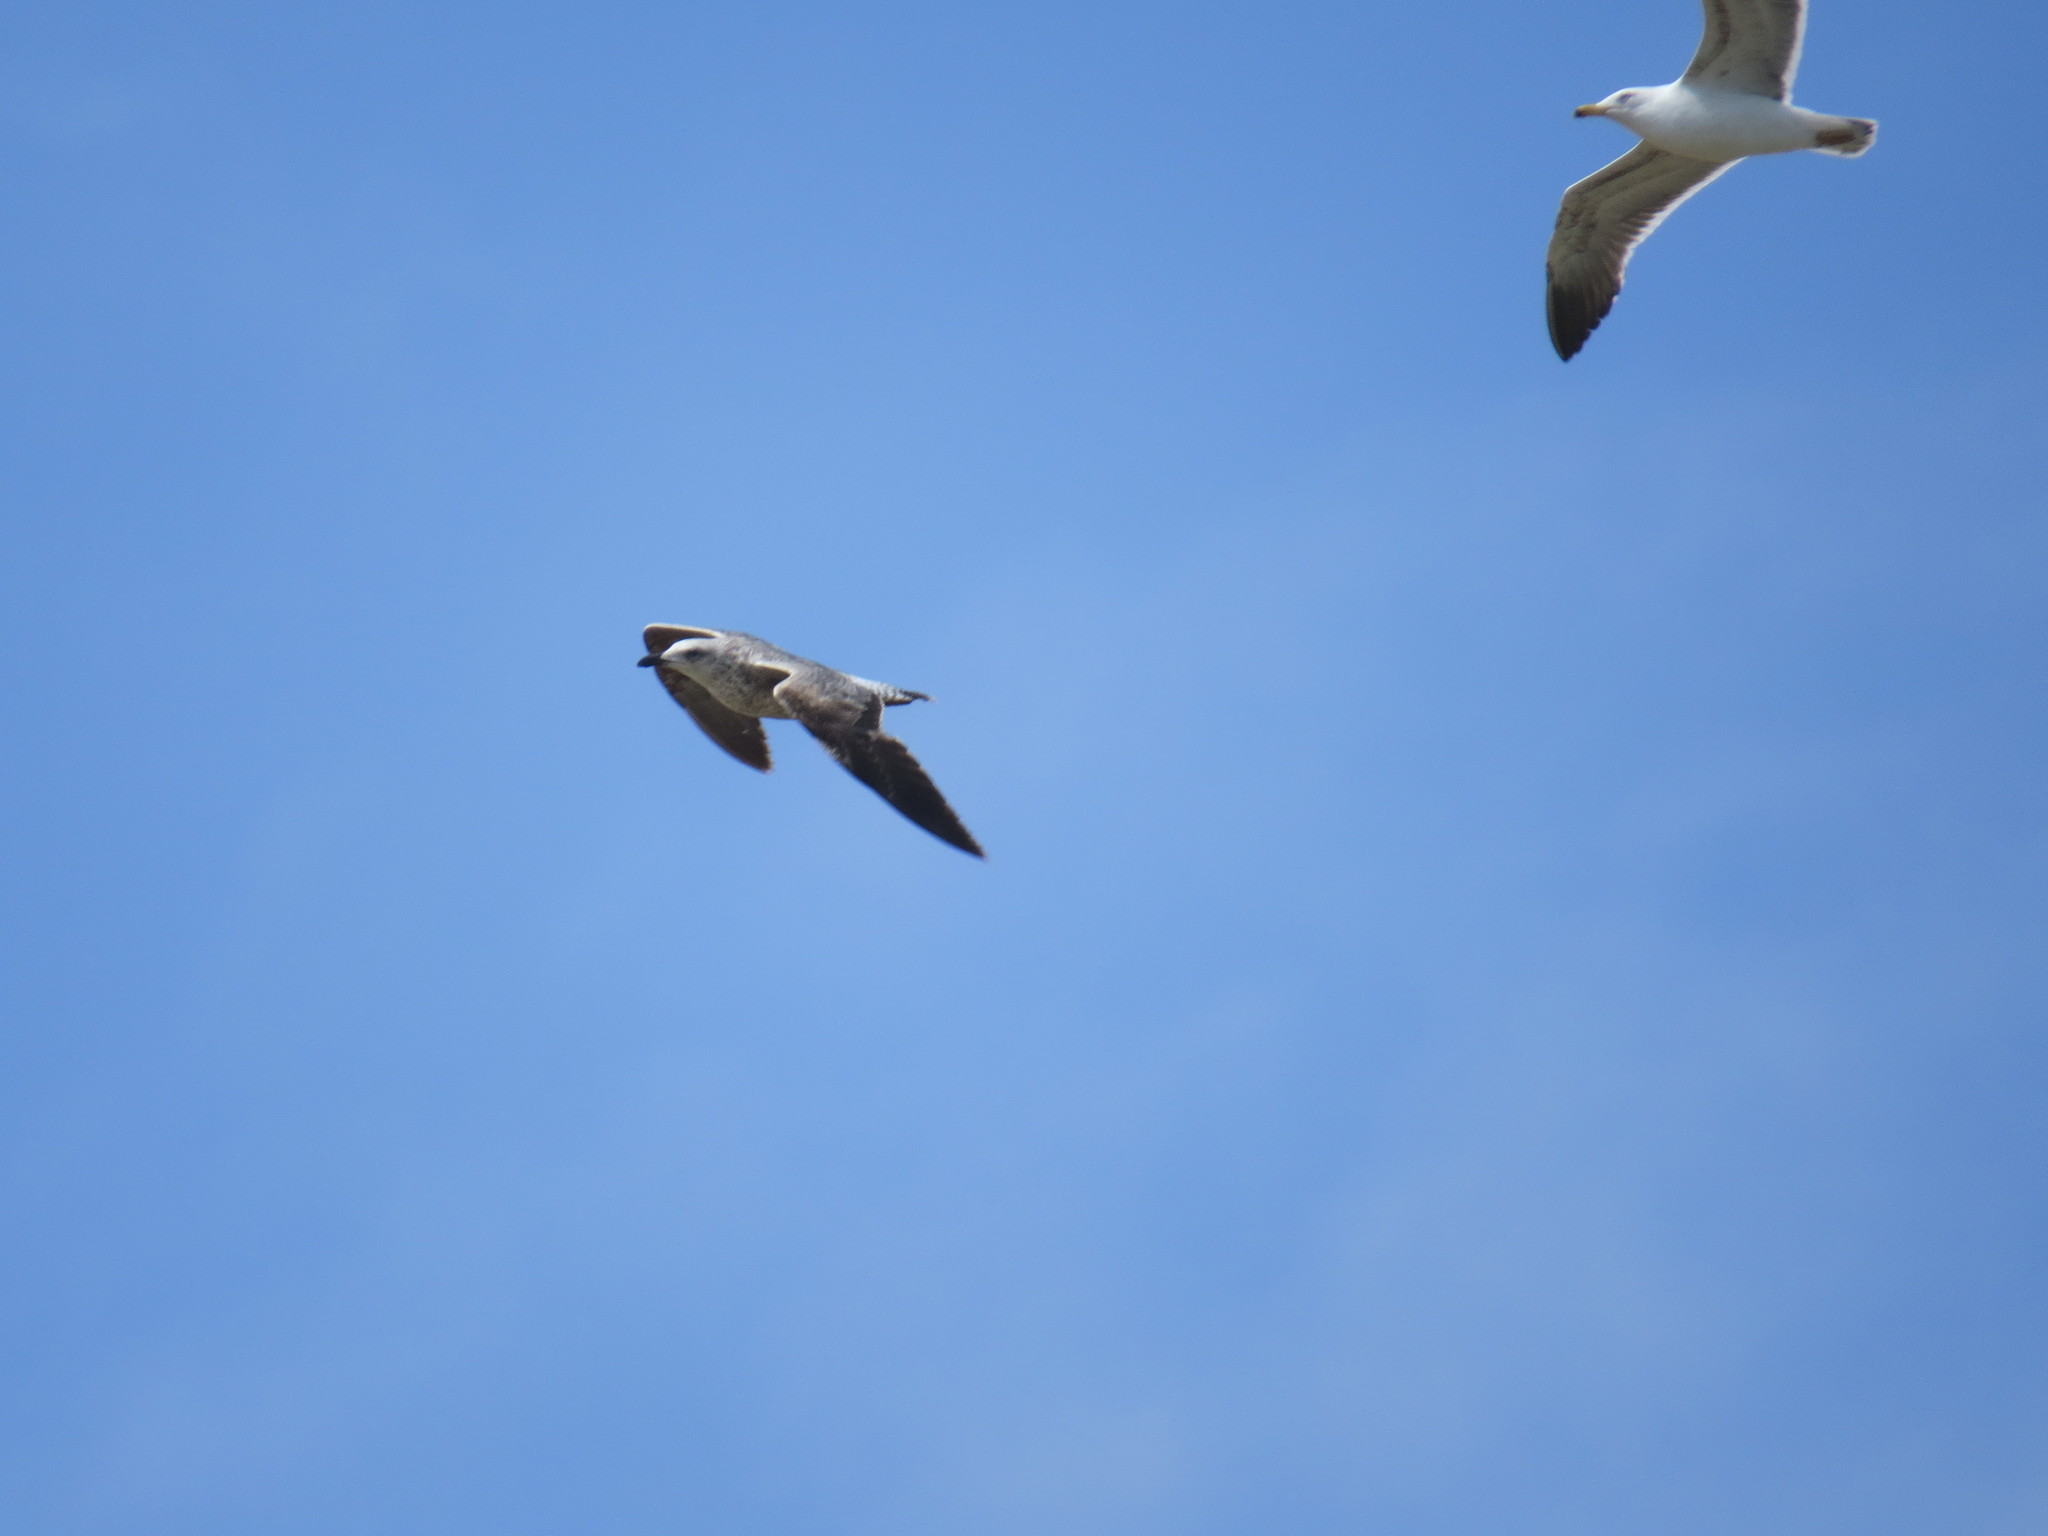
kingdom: Animalia
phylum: Chordata
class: Aves
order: Charadriiformes
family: Laridae
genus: Larus
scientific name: Larus michahellis
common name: Yellow-legged gull
